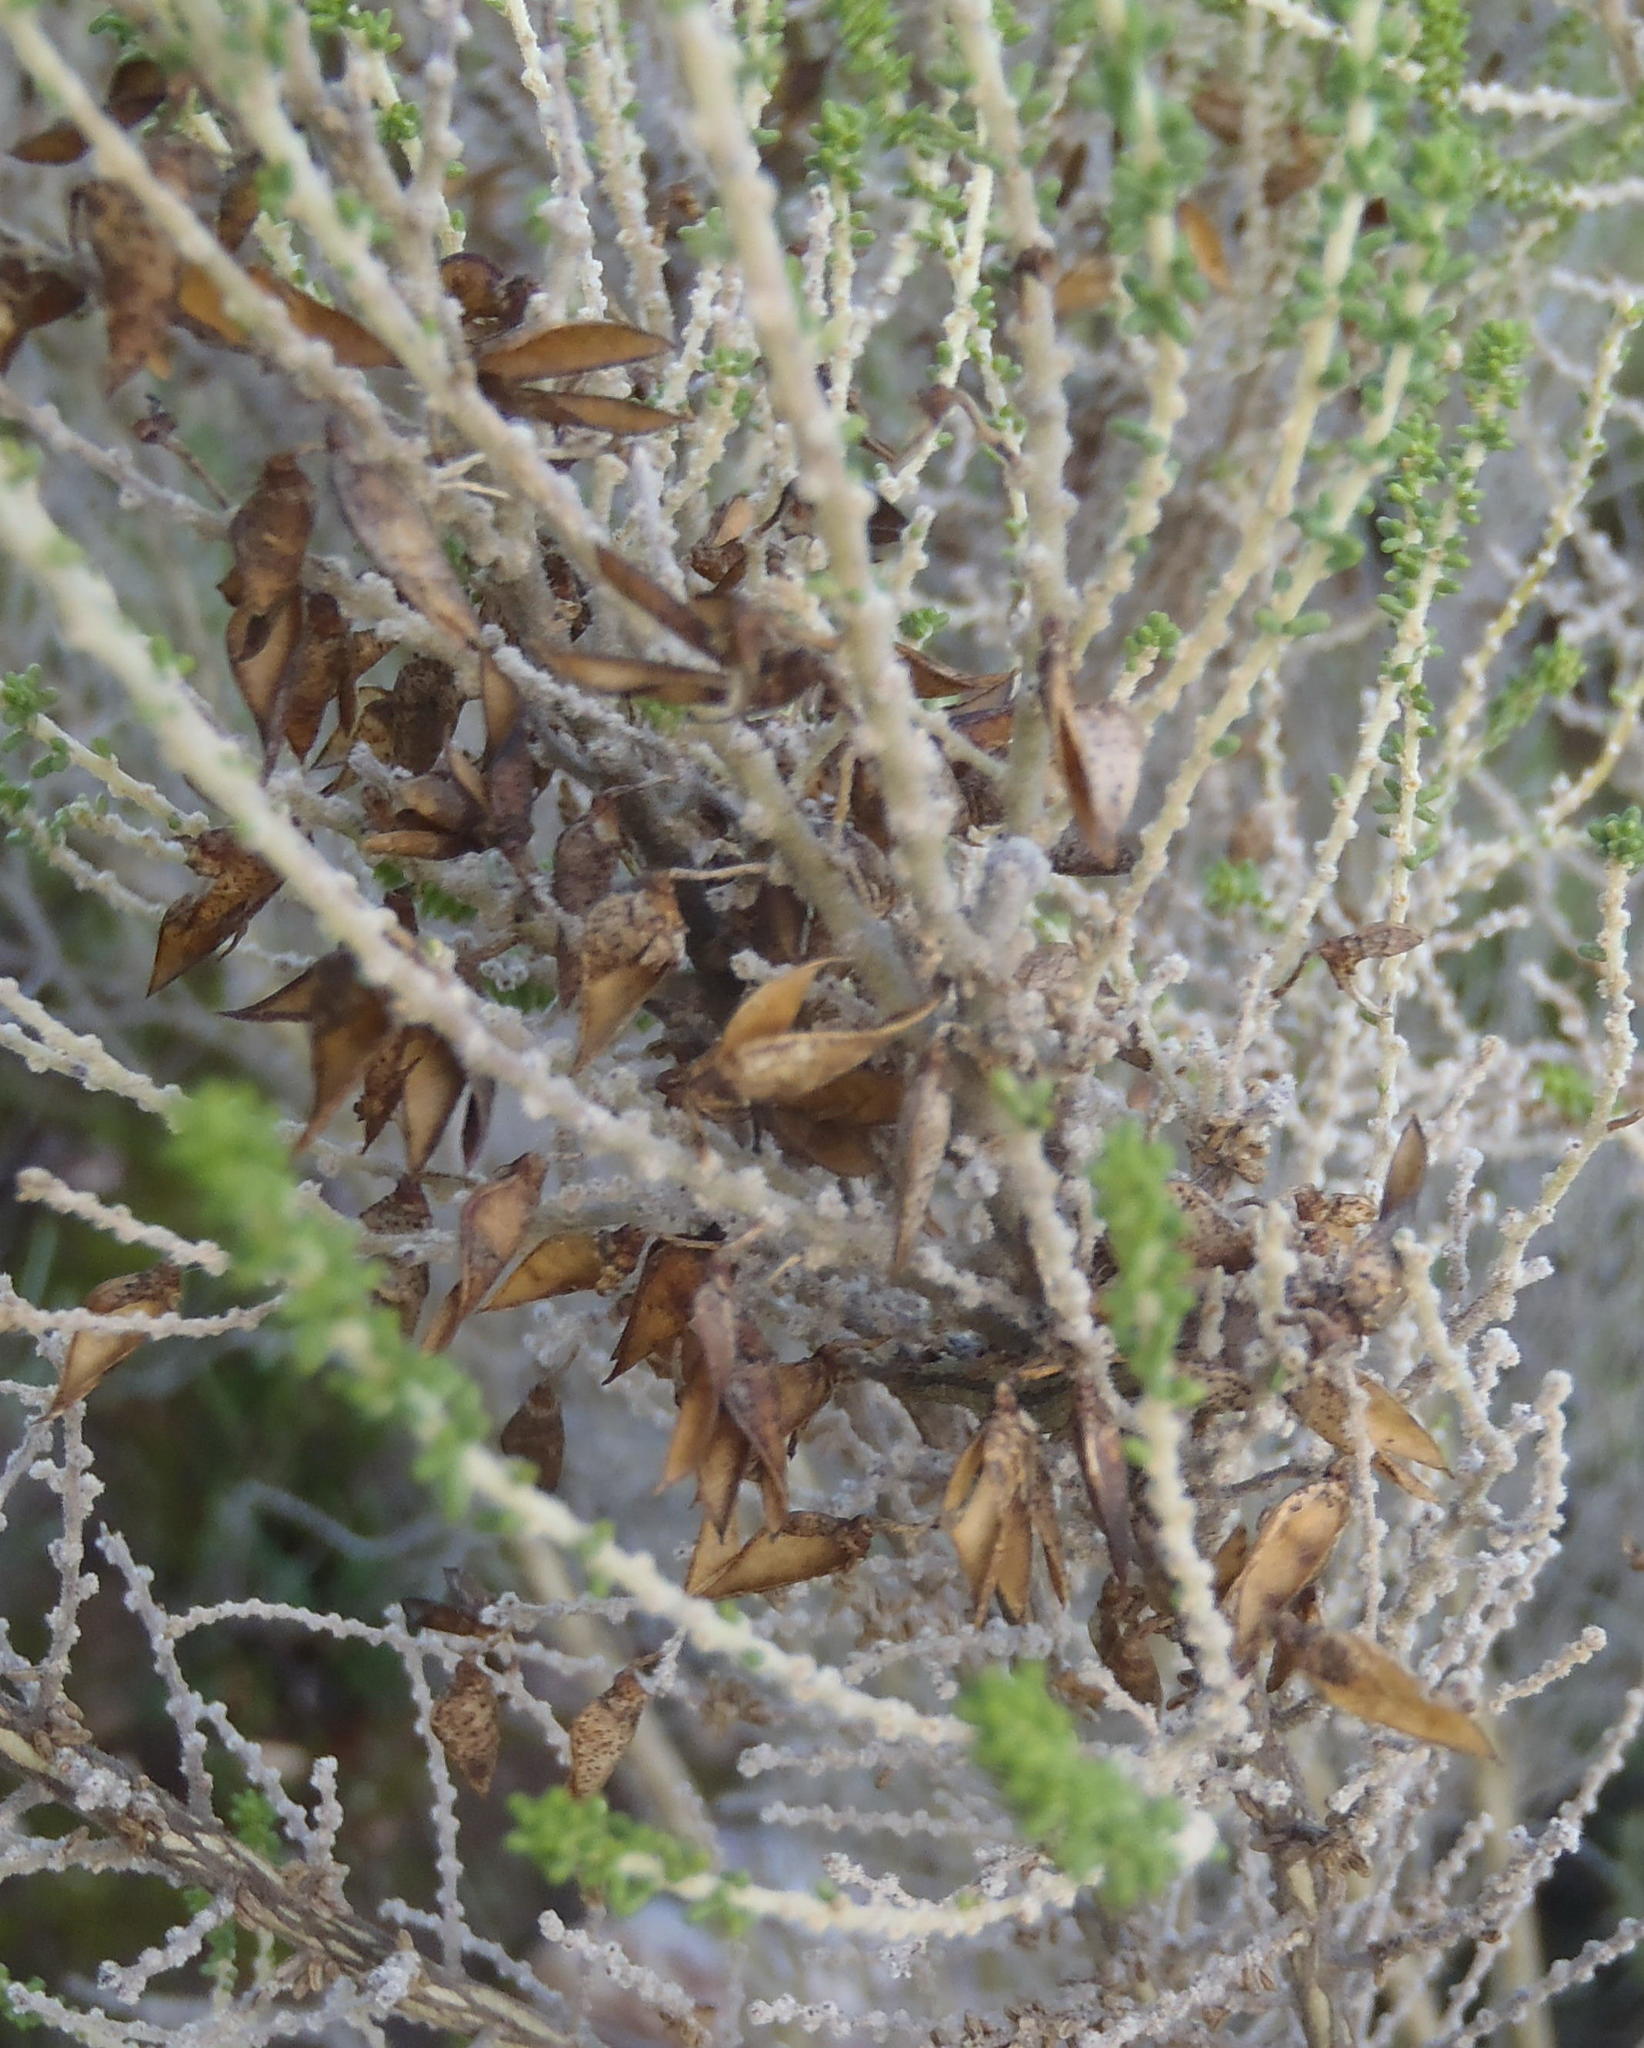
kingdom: Plantae
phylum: Tracheophyta
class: Magnoliopsida
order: Fabales
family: Fabaceae
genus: Aspalathus
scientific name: Aspalathus obtusifolia
